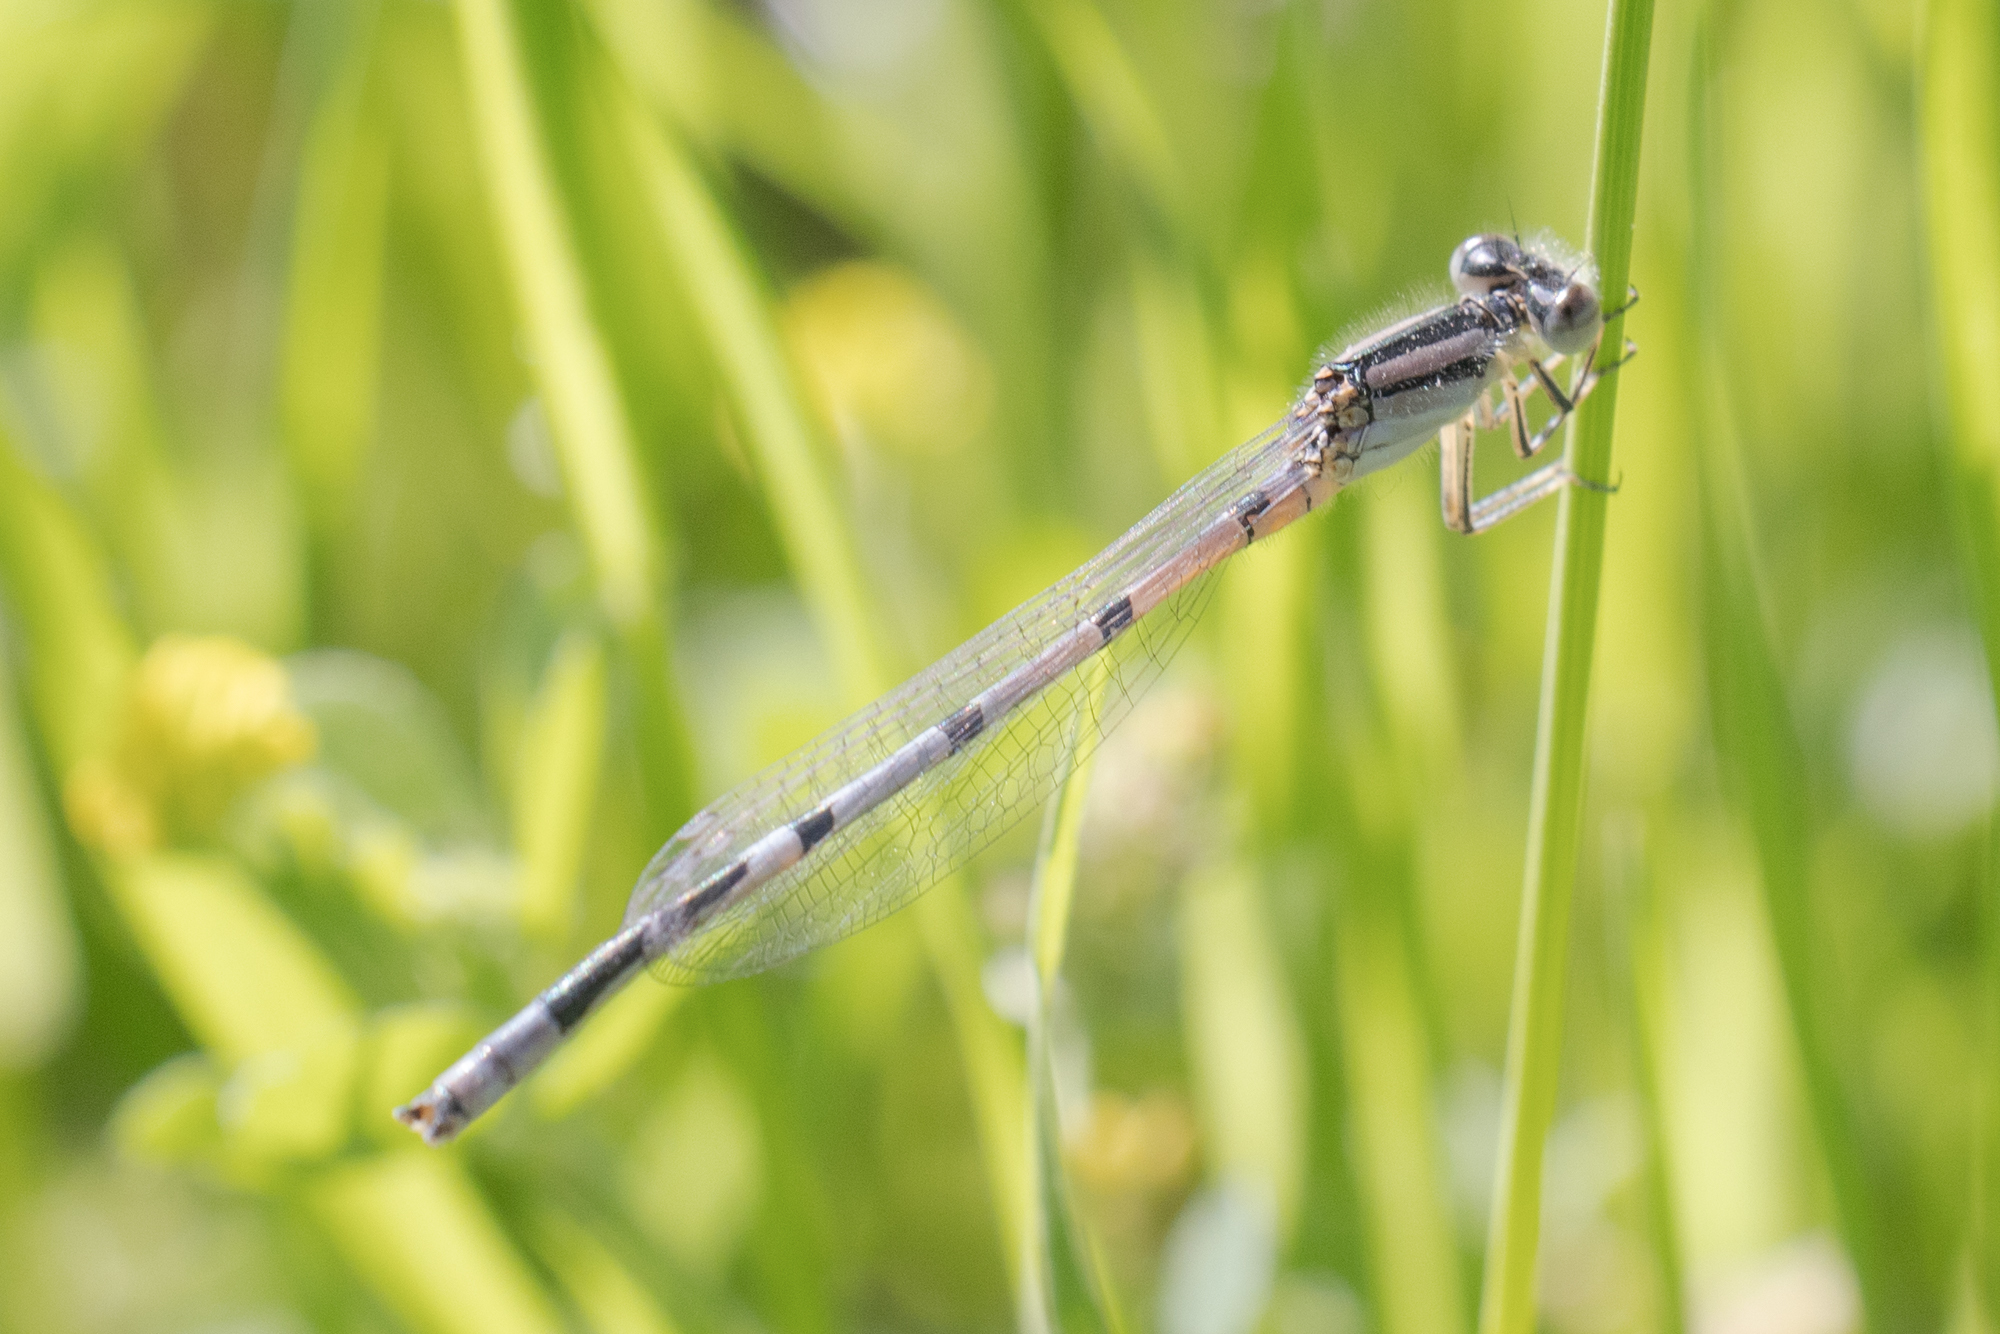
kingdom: Animalia
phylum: Arthropoda
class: Insecta
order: Odonata
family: Coenagrionidae
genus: Enallagma
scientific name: Enallagma civile
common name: Damselfly
